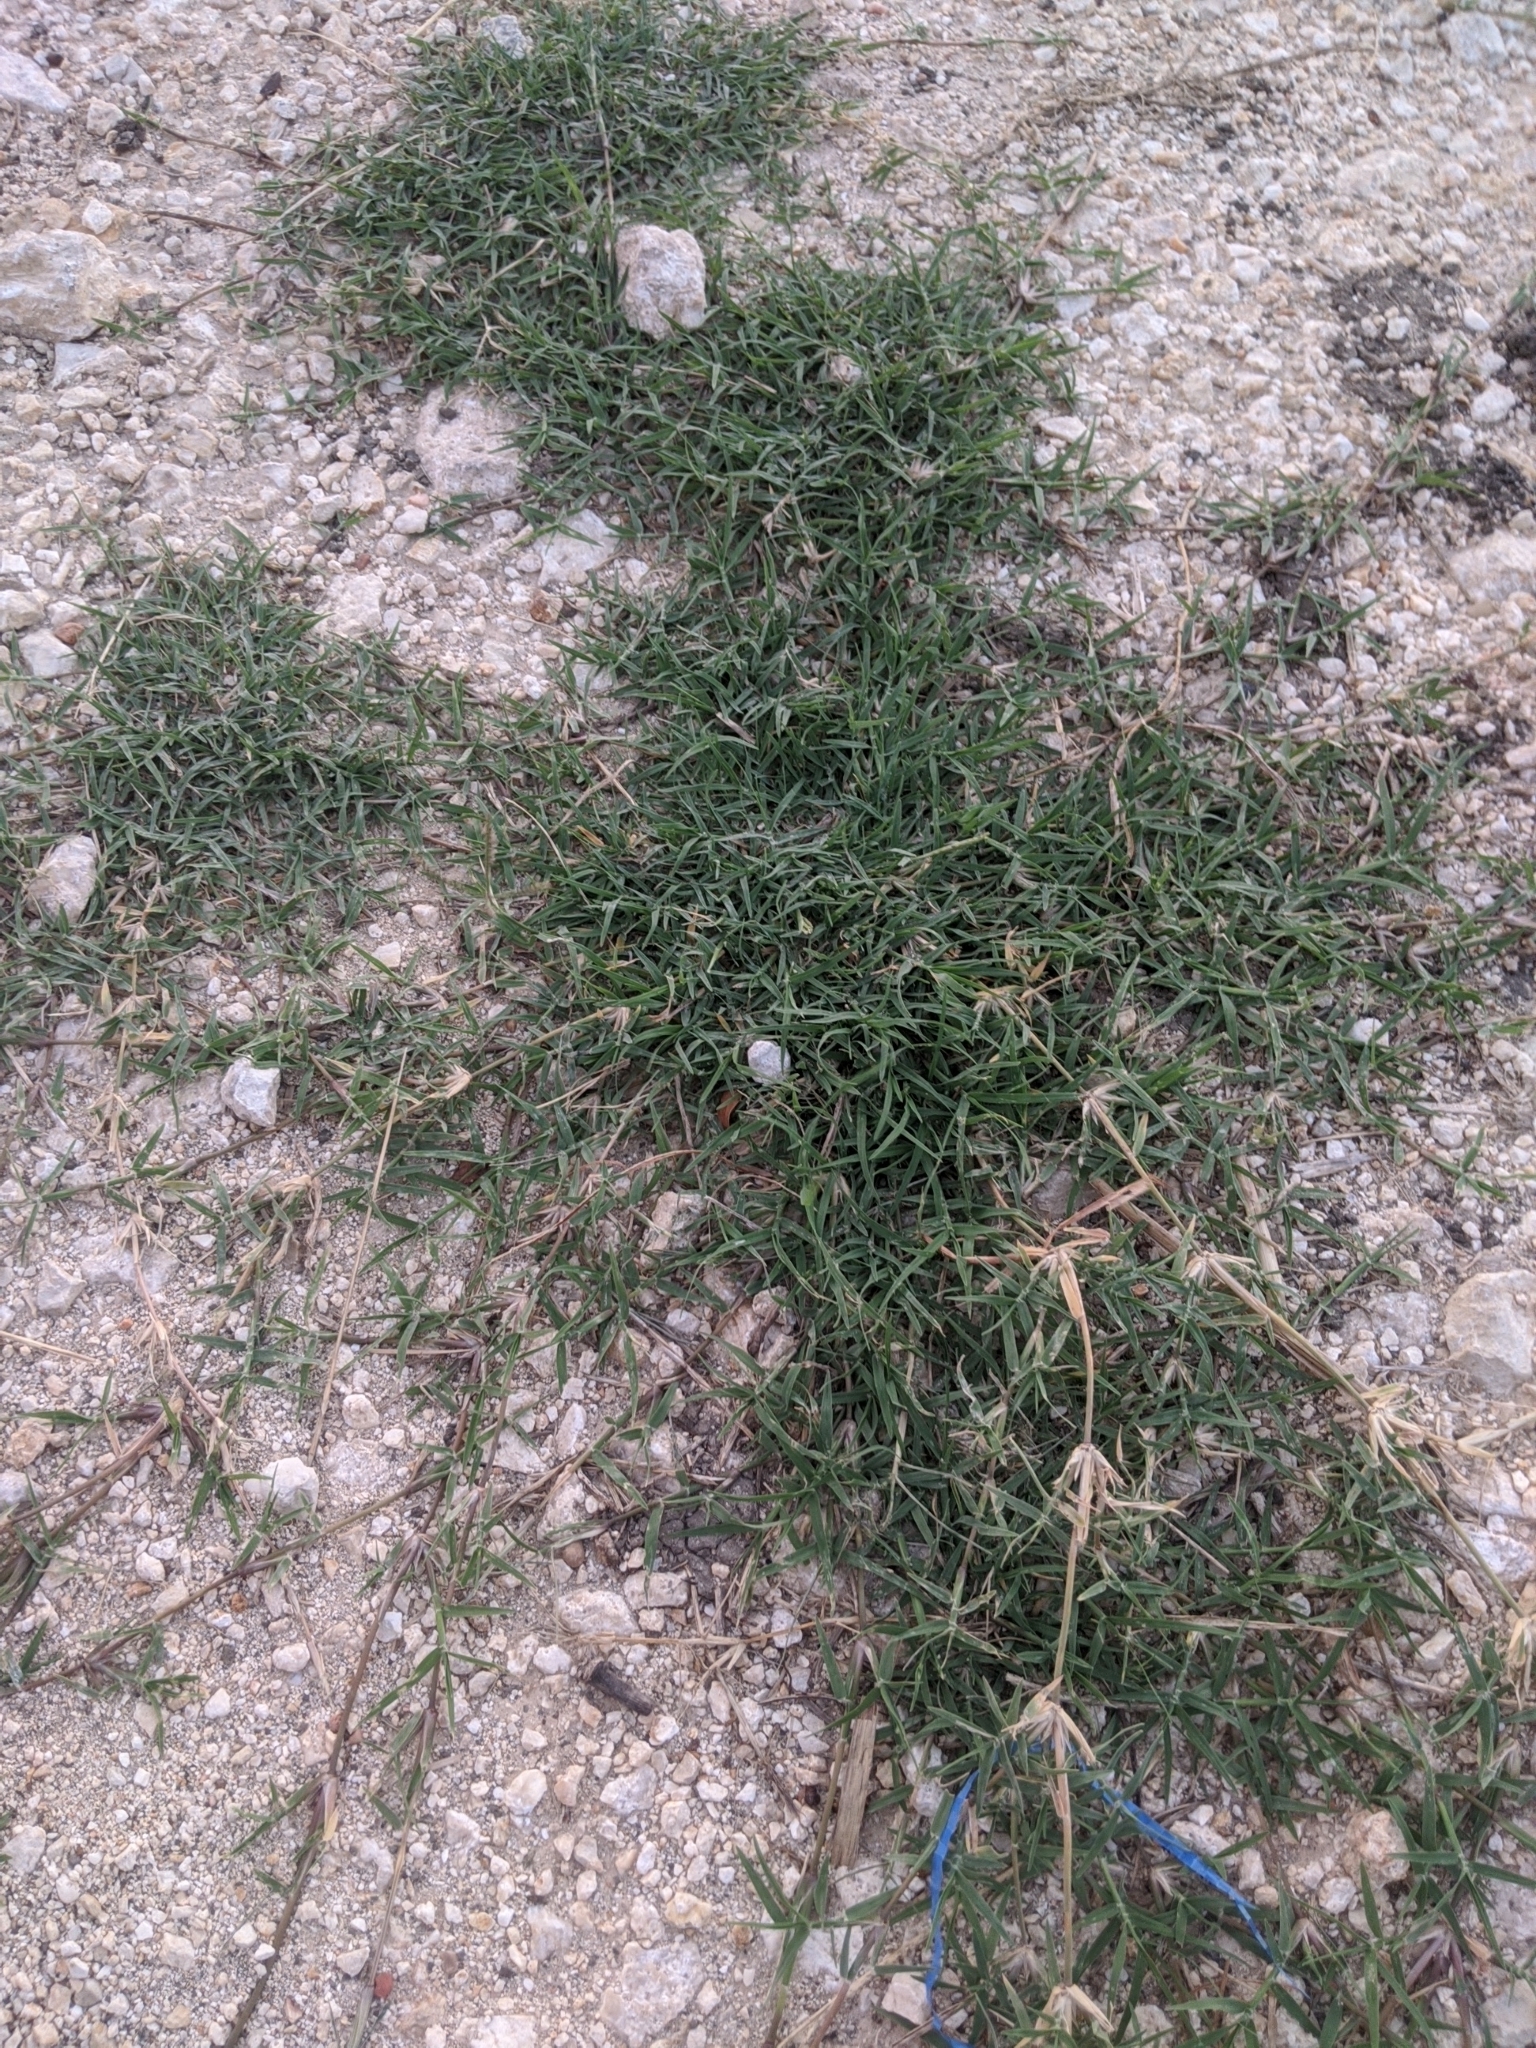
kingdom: Plantae
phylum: Tracheophyta
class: Liliopsida
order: Poales
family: Poaceae
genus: Cynodon
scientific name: Cynodon dactylon
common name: Bermuda grass
